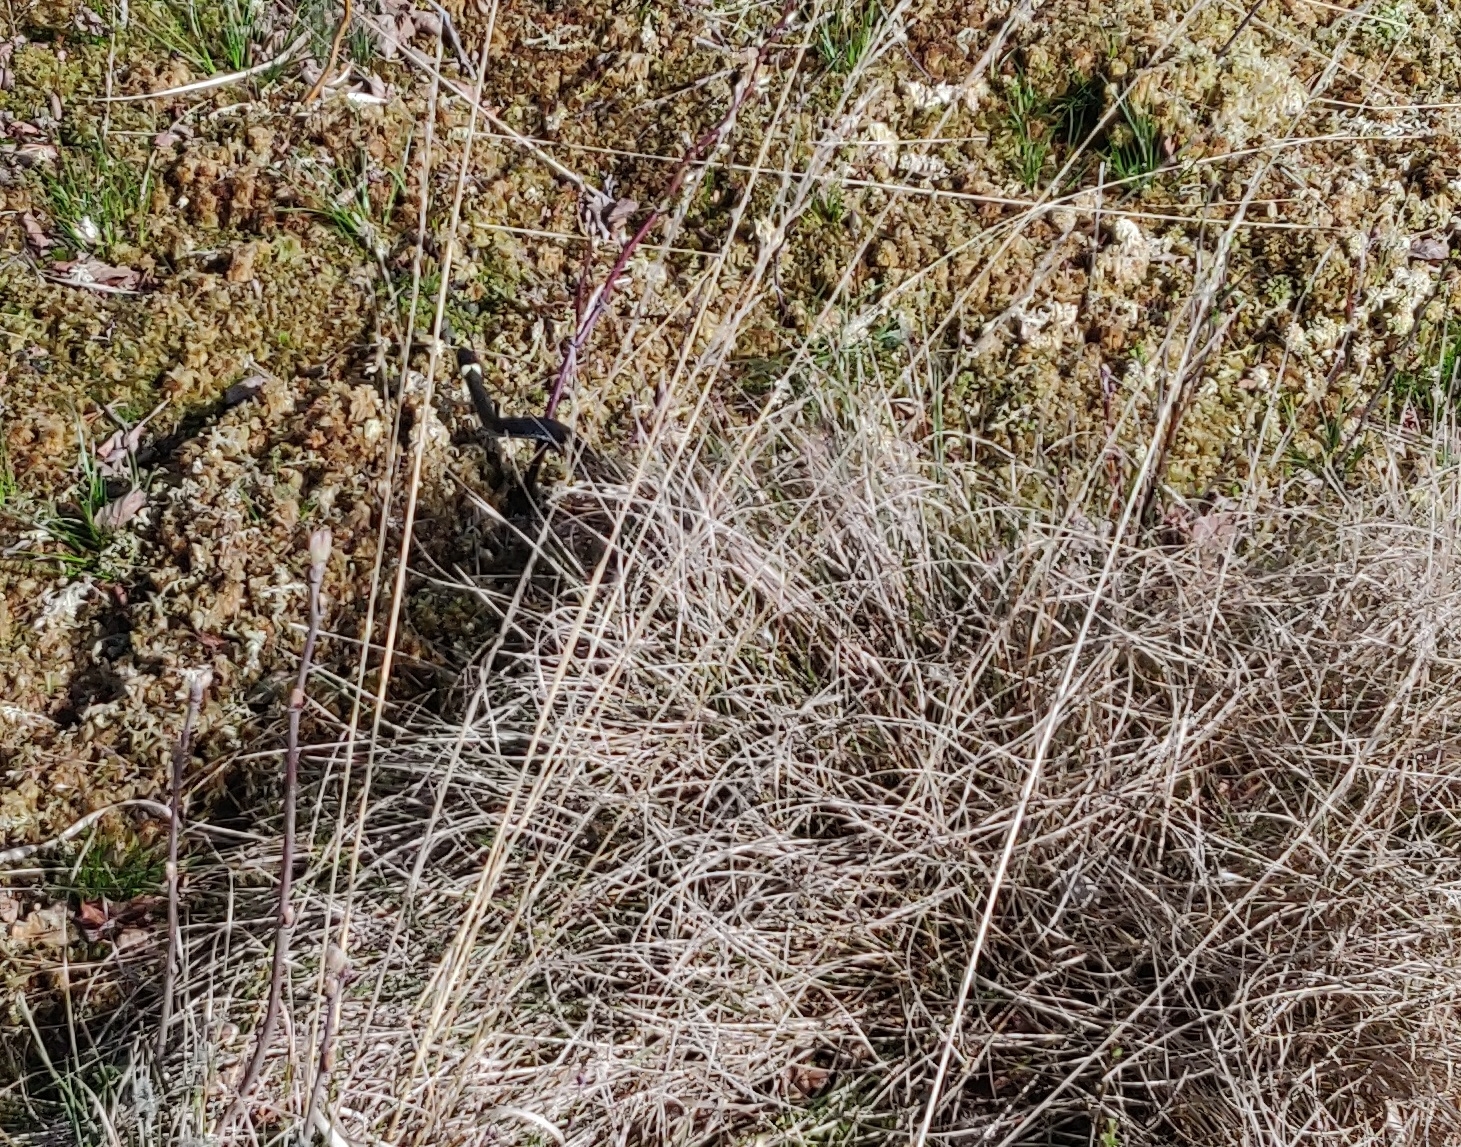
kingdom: Animalia
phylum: Chordata
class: Squamata
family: Colubridae
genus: Natrix
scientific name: Natrix natrix
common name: Grass snake
